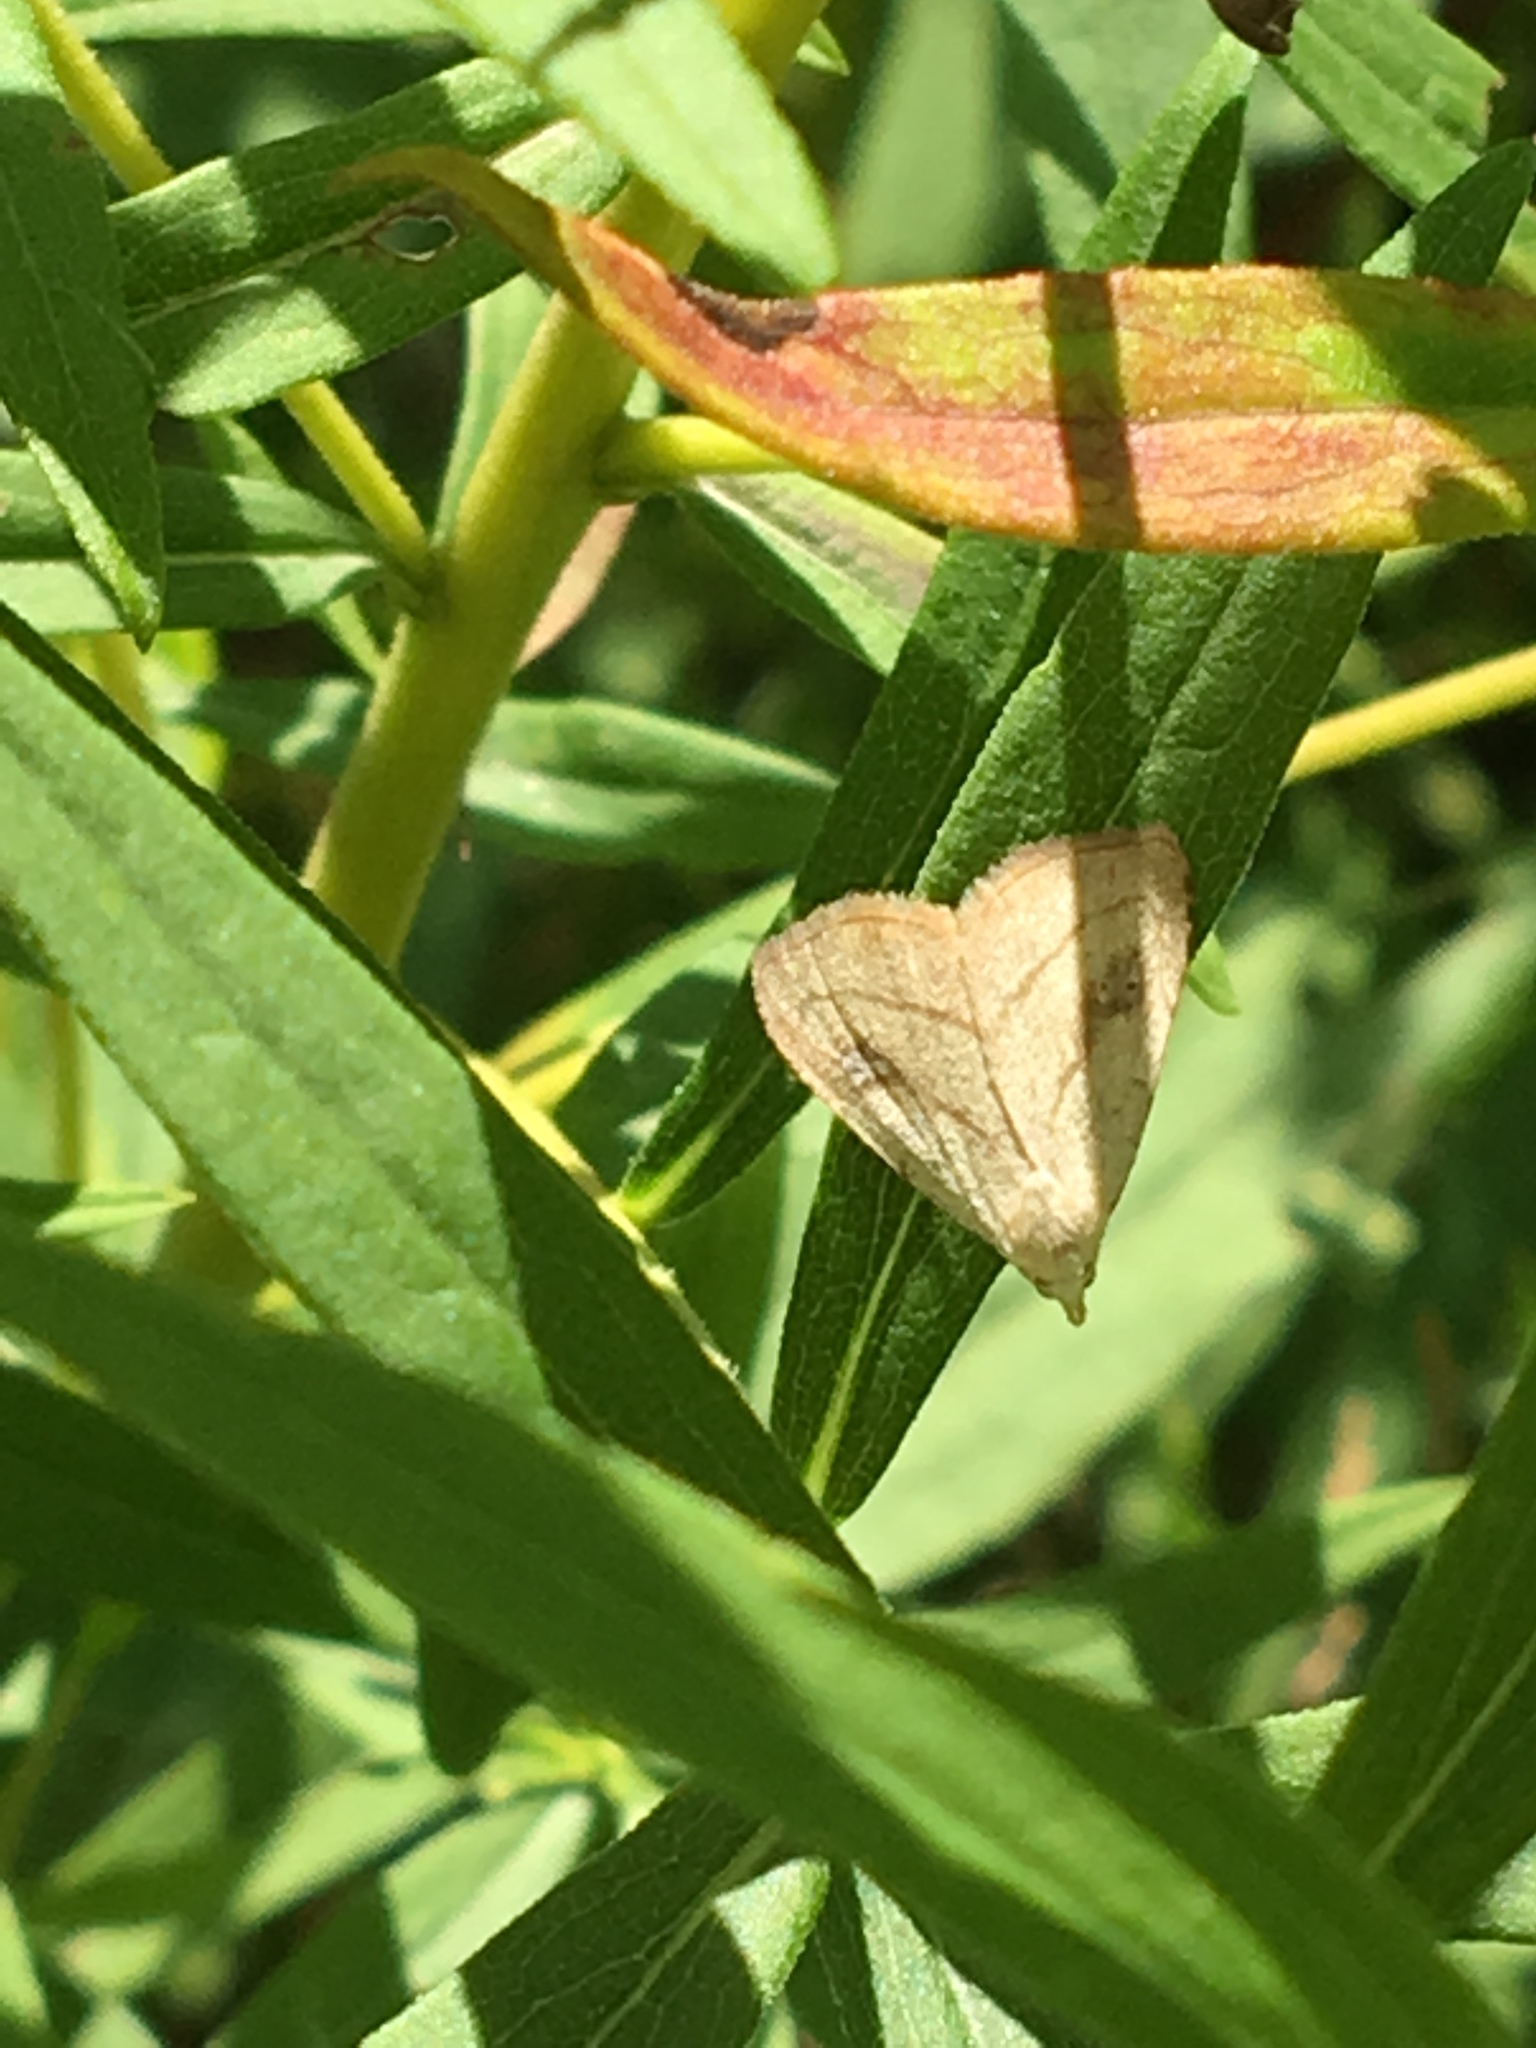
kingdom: Animalia
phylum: Arthropoda
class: Insecta
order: Lepidoptera
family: Erebidae
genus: Rivula
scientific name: Rivula propinqualis
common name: Spotted grass moth
